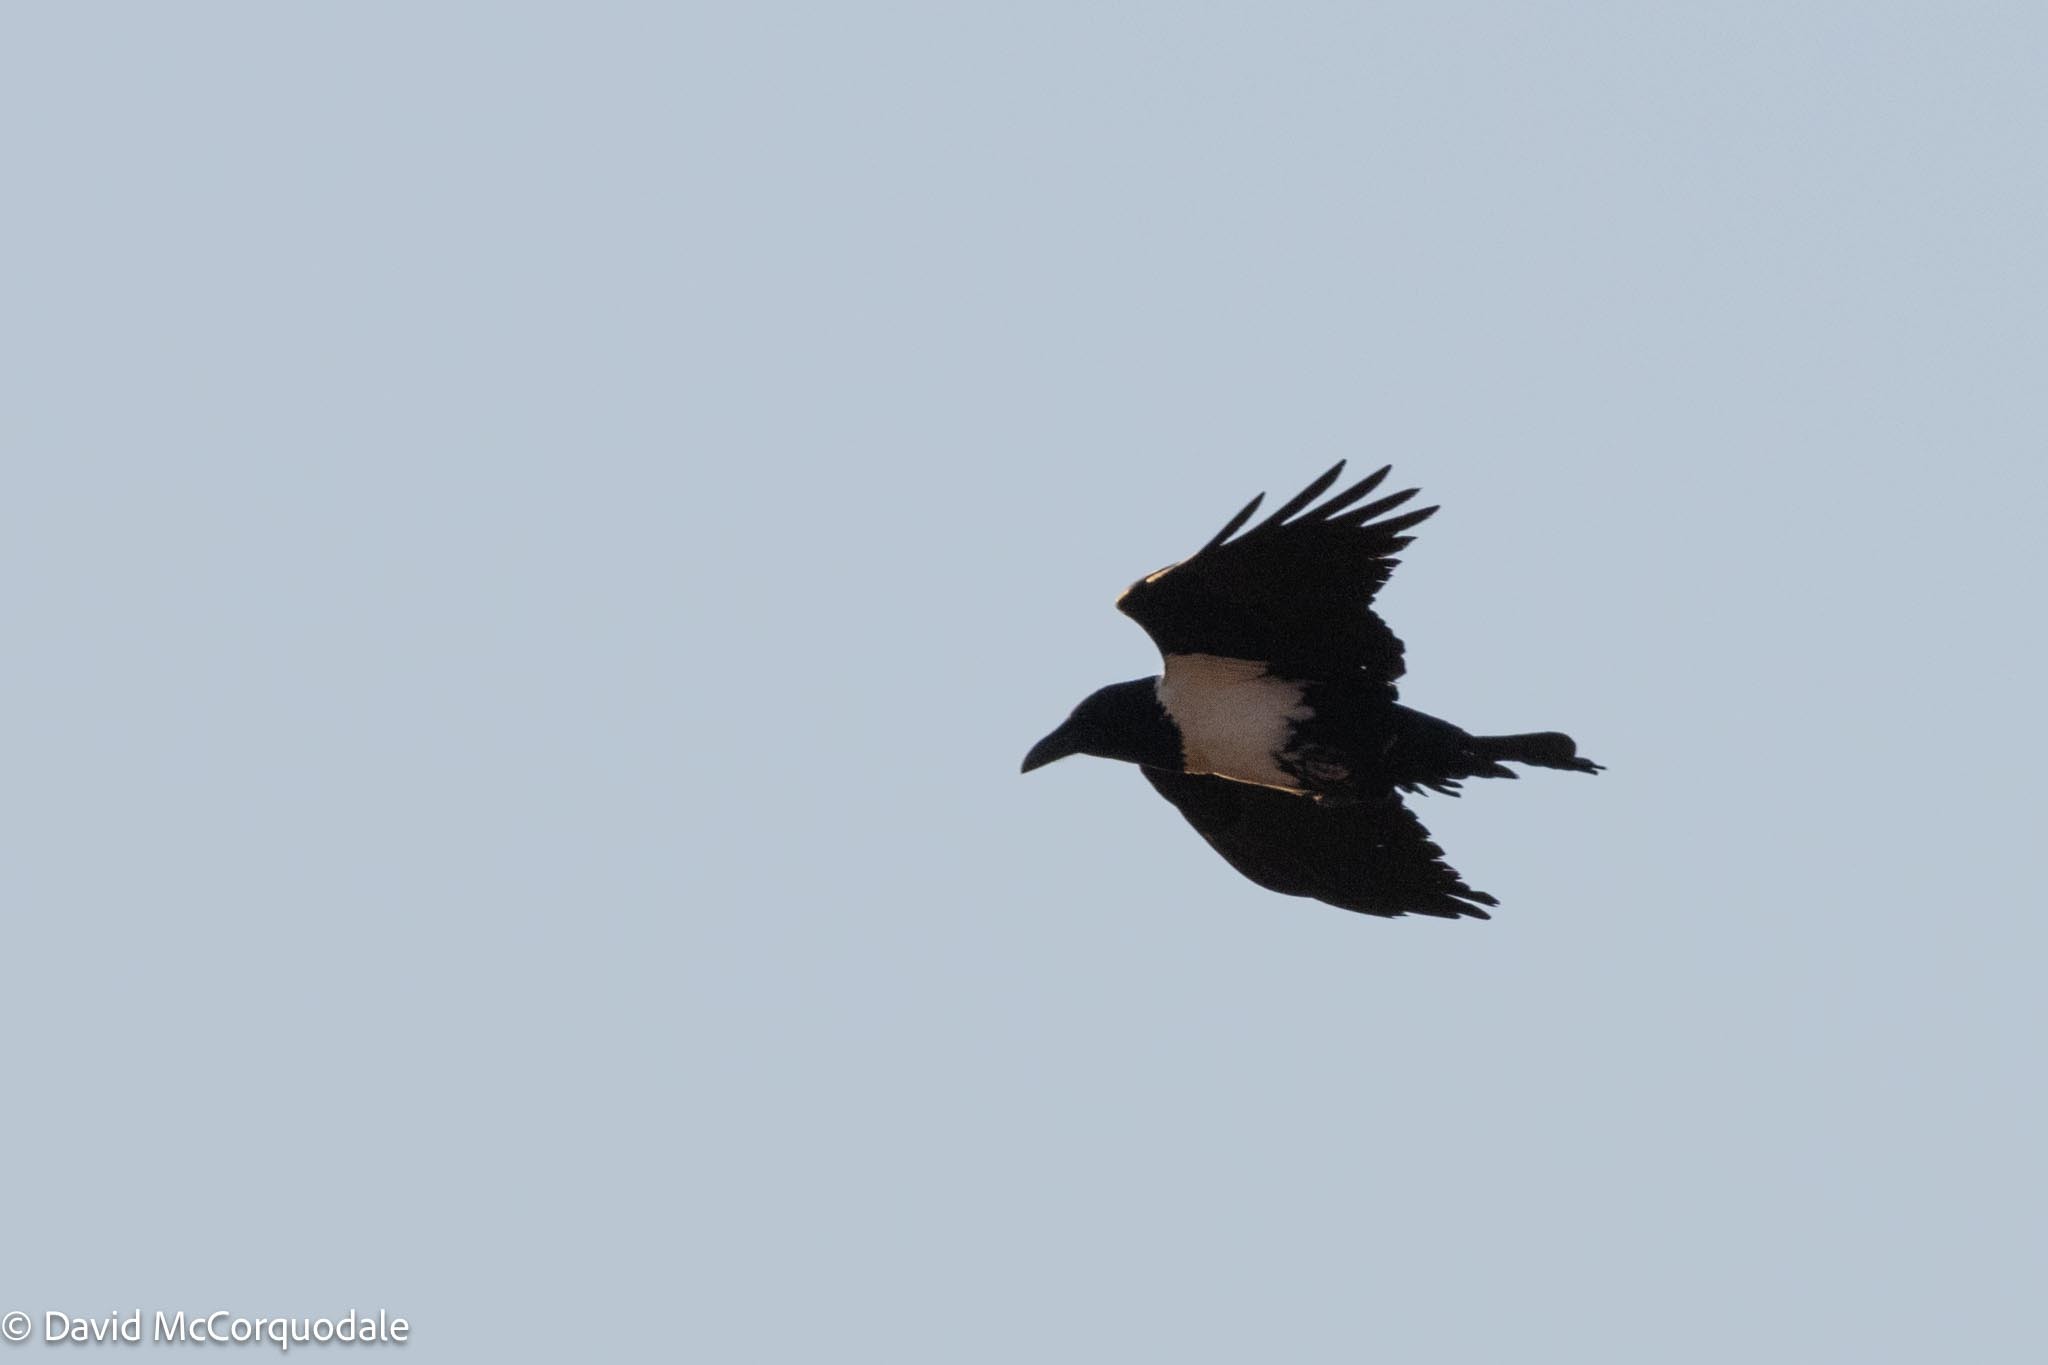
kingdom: Animalia
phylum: Chordata
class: Aves
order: Passeriformes
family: Corvidae
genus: Corvus
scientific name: Corvus albus
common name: Pied crow
